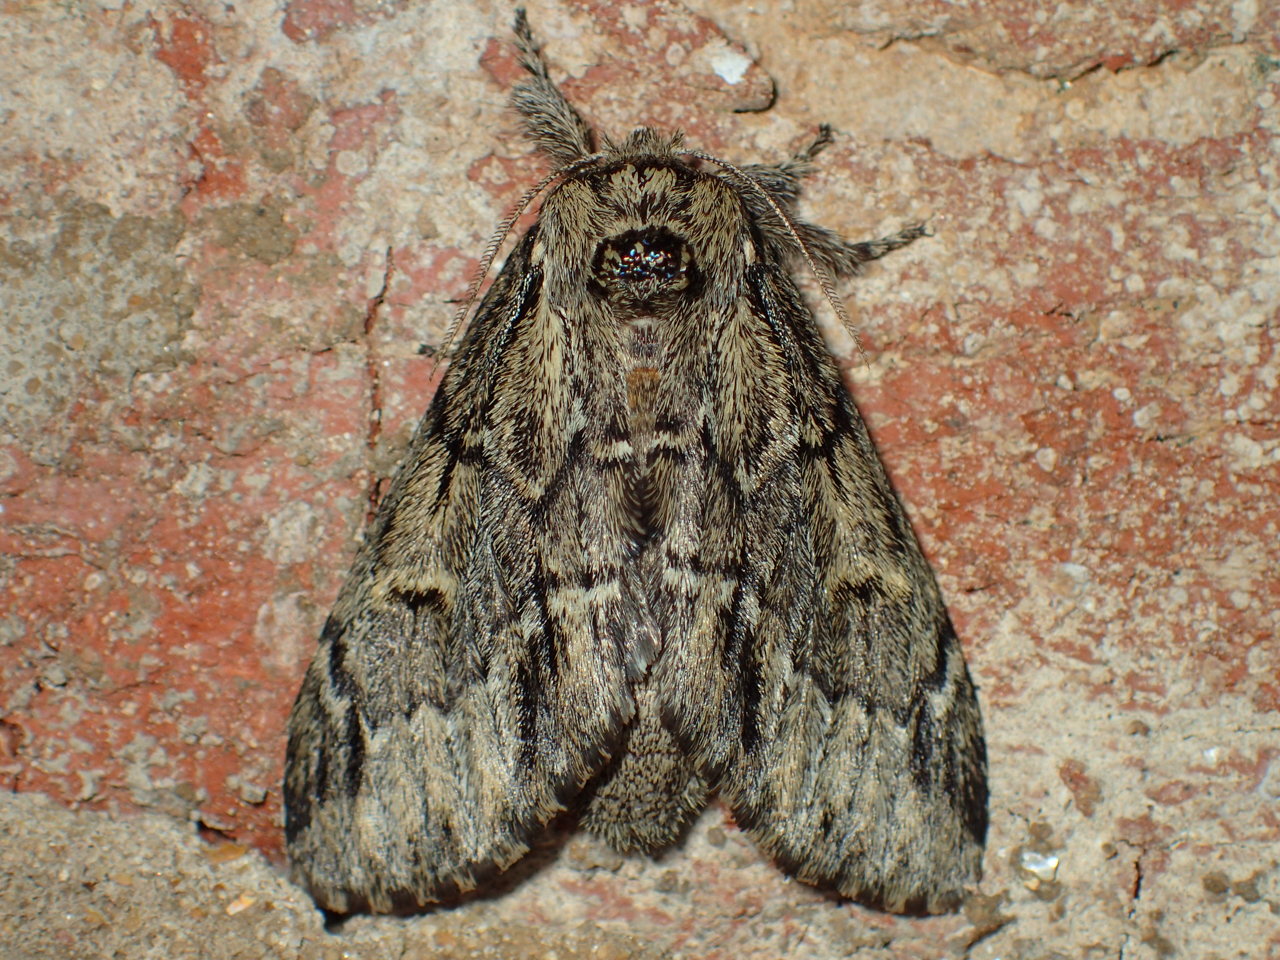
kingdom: Animalia
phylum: Arthropoda
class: Insecta
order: Lepidoptera
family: Notodontidae
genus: Paraeschra
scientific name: Paraeschra georgica
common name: Georgian prominent
